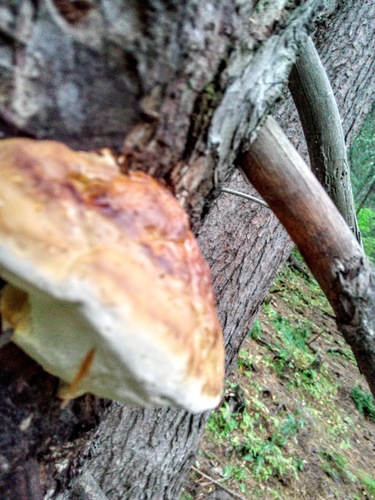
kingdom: Fungi
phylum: Basidiomycota
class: Agaricomycetes
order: Polyporales
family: Fomitopsidaceae
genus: Fomitopsis
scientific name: Fomitopsis pinicola
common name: Red-belted bracket
